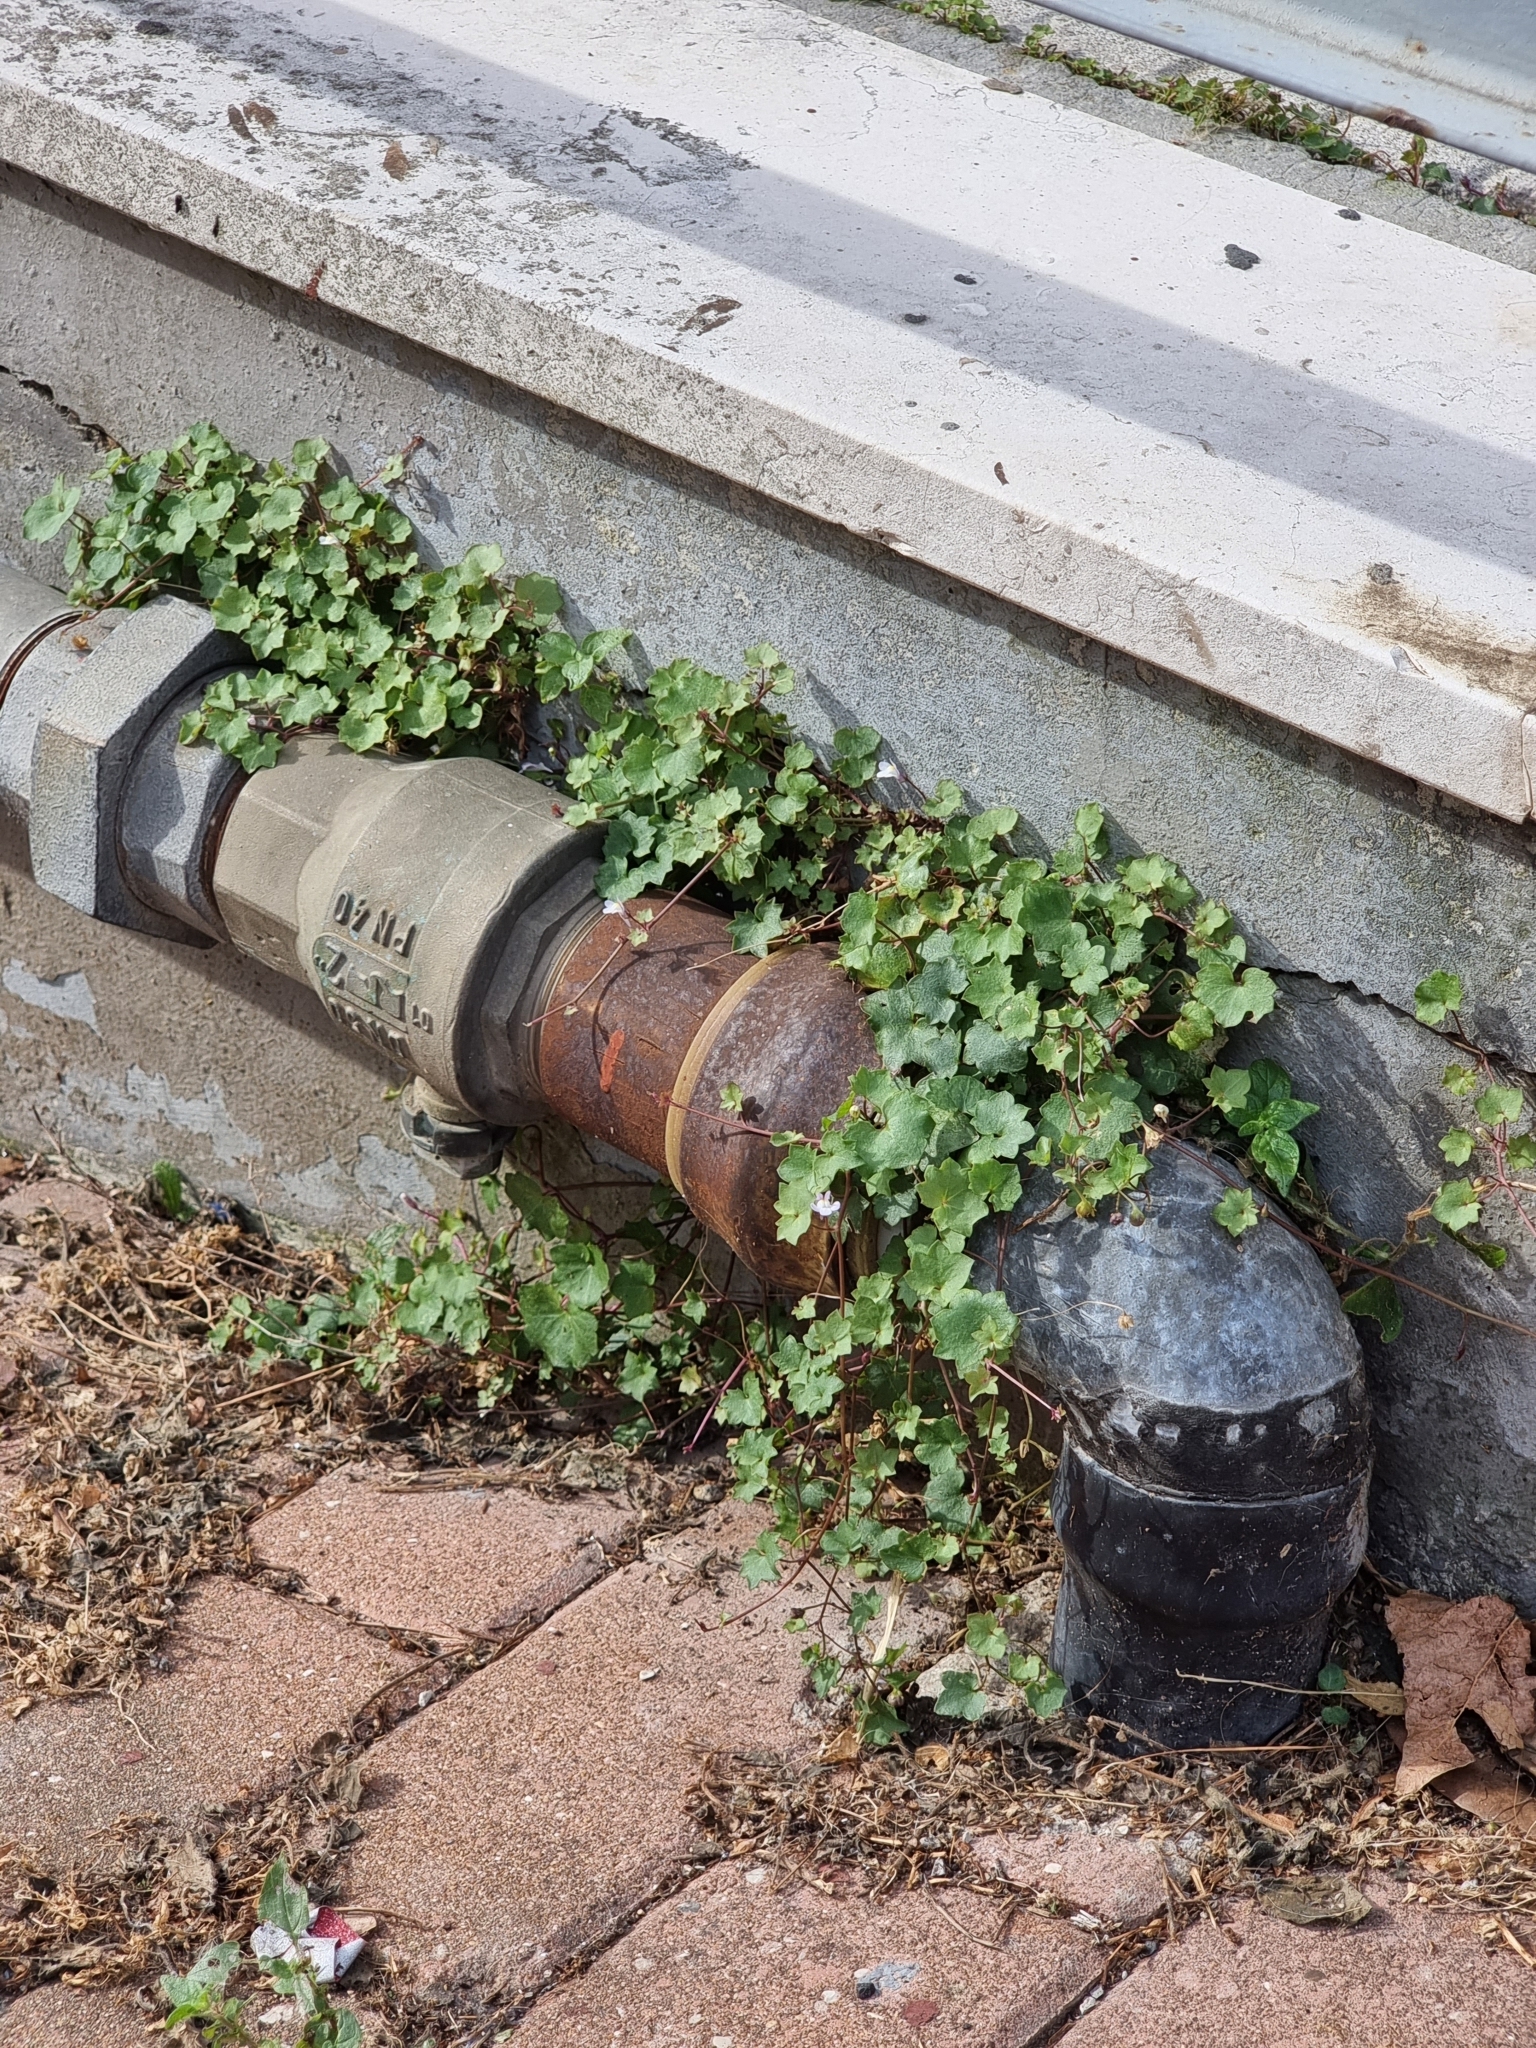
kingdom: Plantae
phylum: Tracheophyta
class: Magnoliopsida
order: Lamiales
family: Plantaginaceae
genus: Cymbalaria
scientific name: Cymbalaria muralis
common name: Ivy-leaved toadflax
